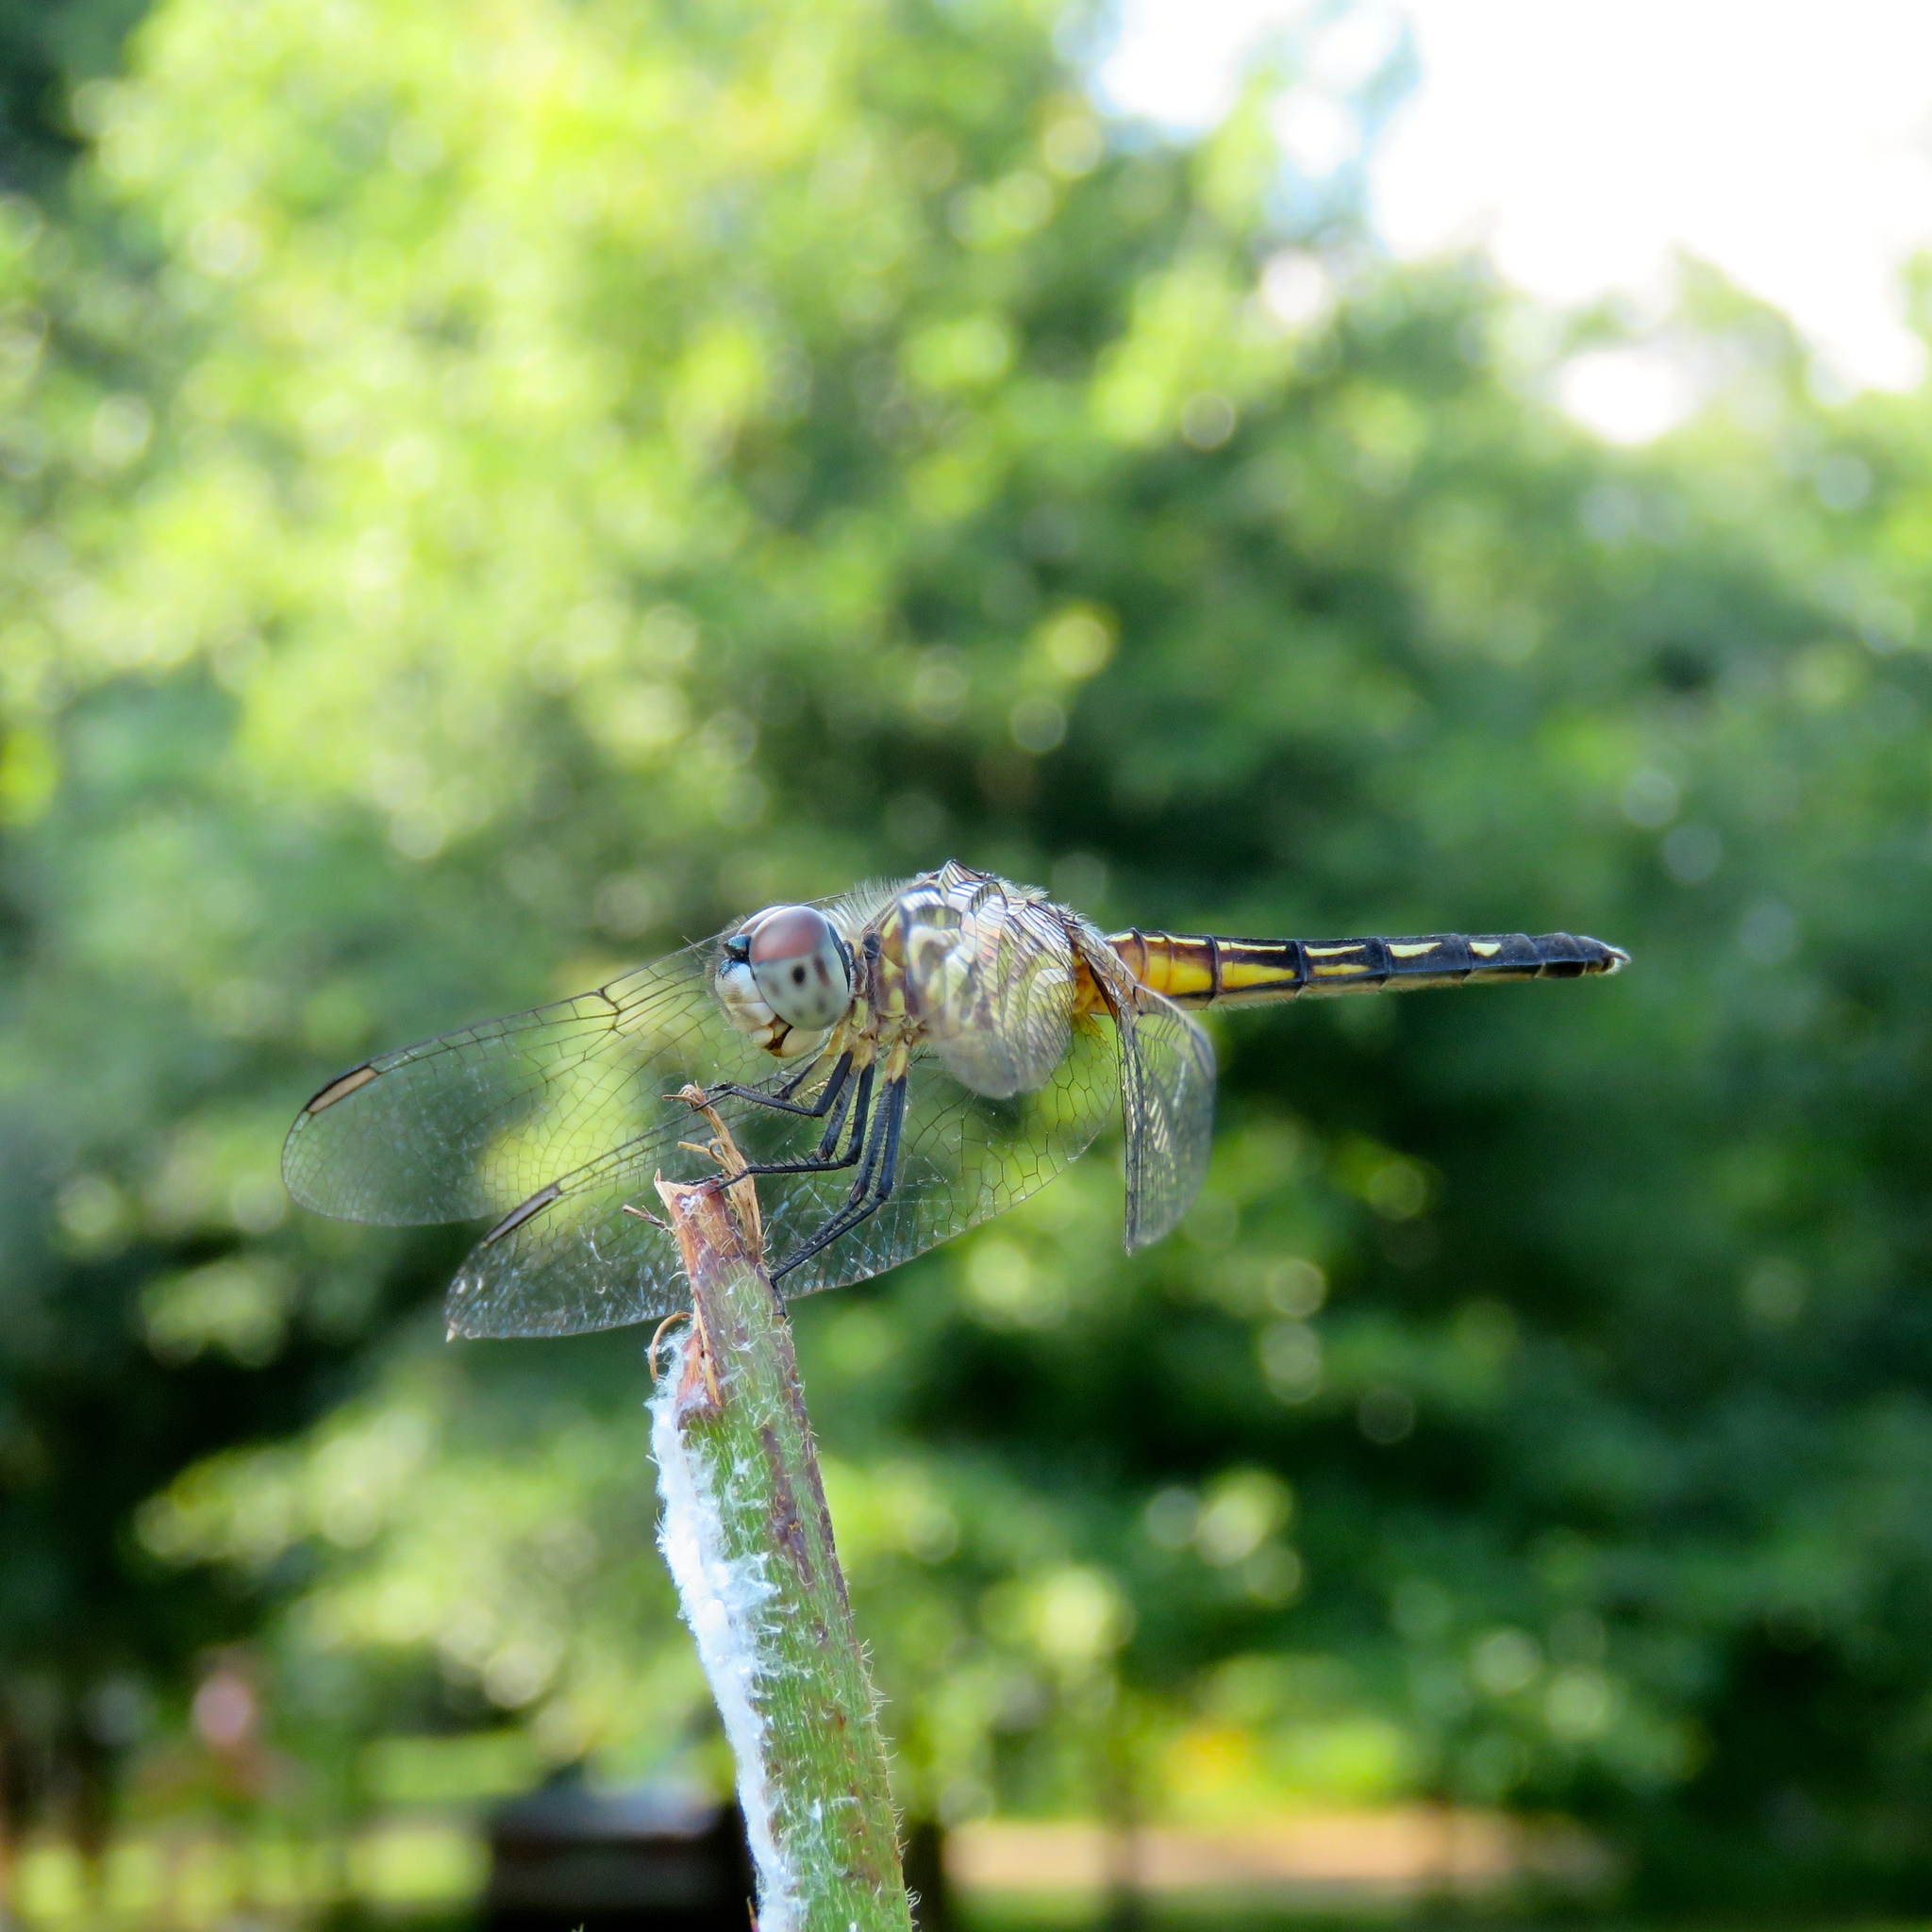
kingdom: Animalia
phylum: Arthropoda
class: Insecta
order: Odonata
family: Libellulidae
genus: Pachydiplax
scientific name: Pachydiplax longipennis
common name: Blue dasher
